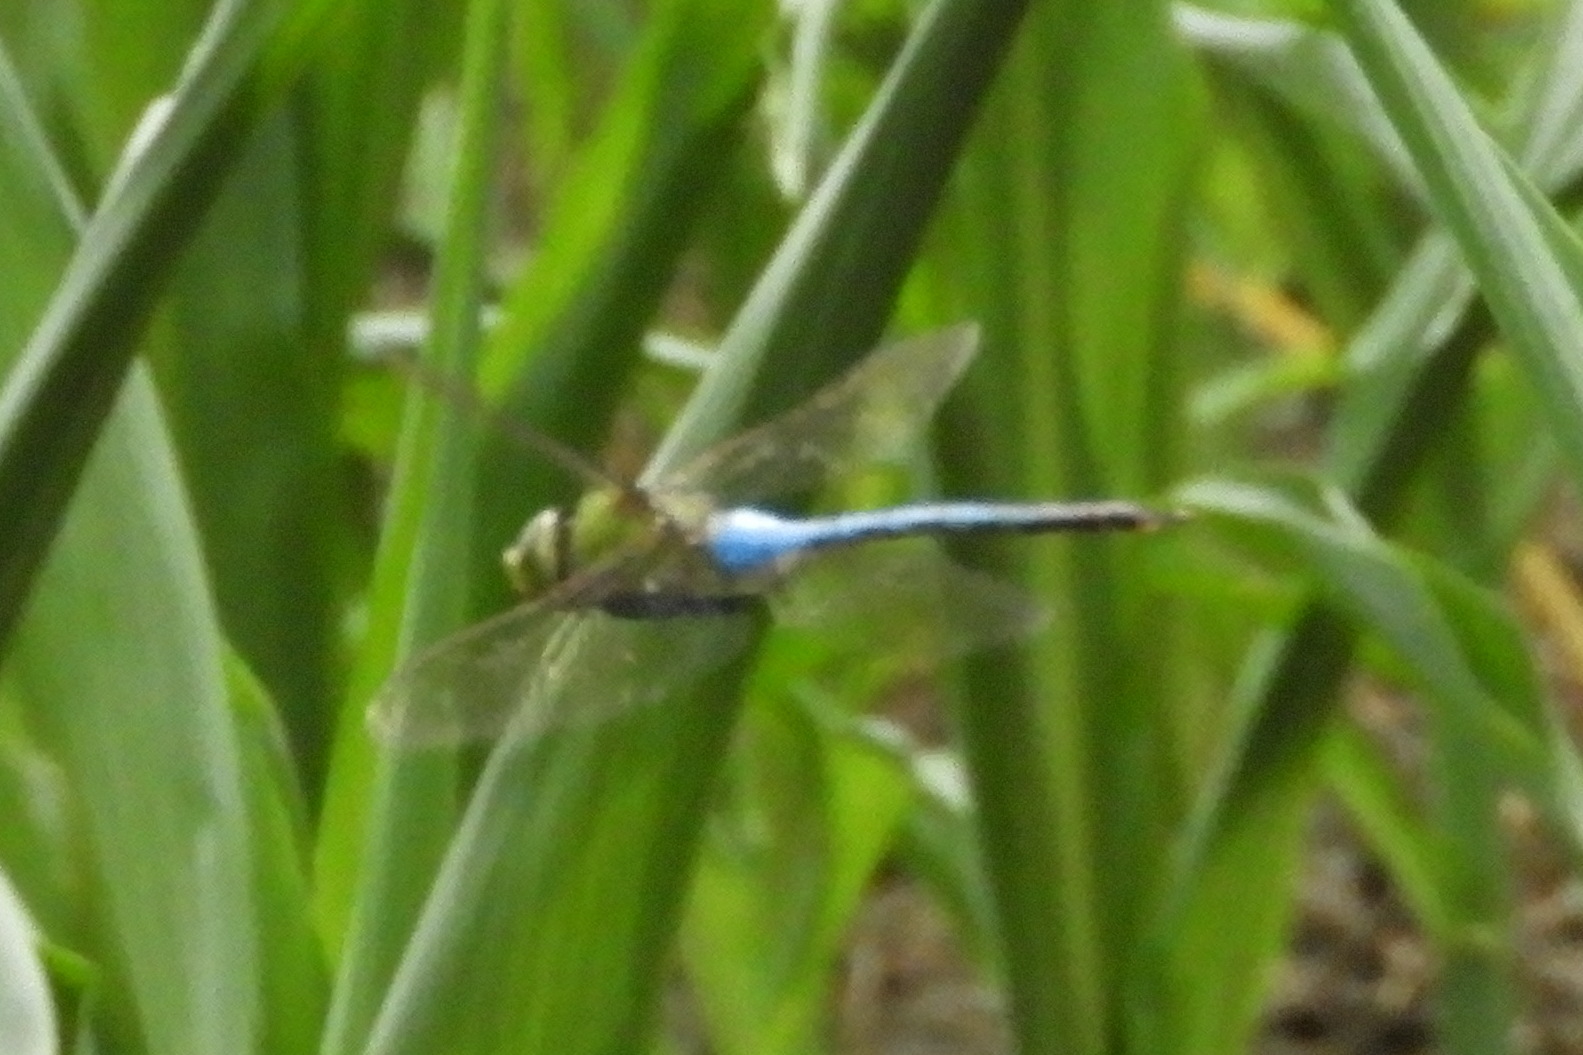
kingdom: Animalia
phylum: Arthropoda
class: Insecta
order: Odonata
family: Aeshnidae
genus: Anax
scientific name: Anax junius
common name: Common green darner
